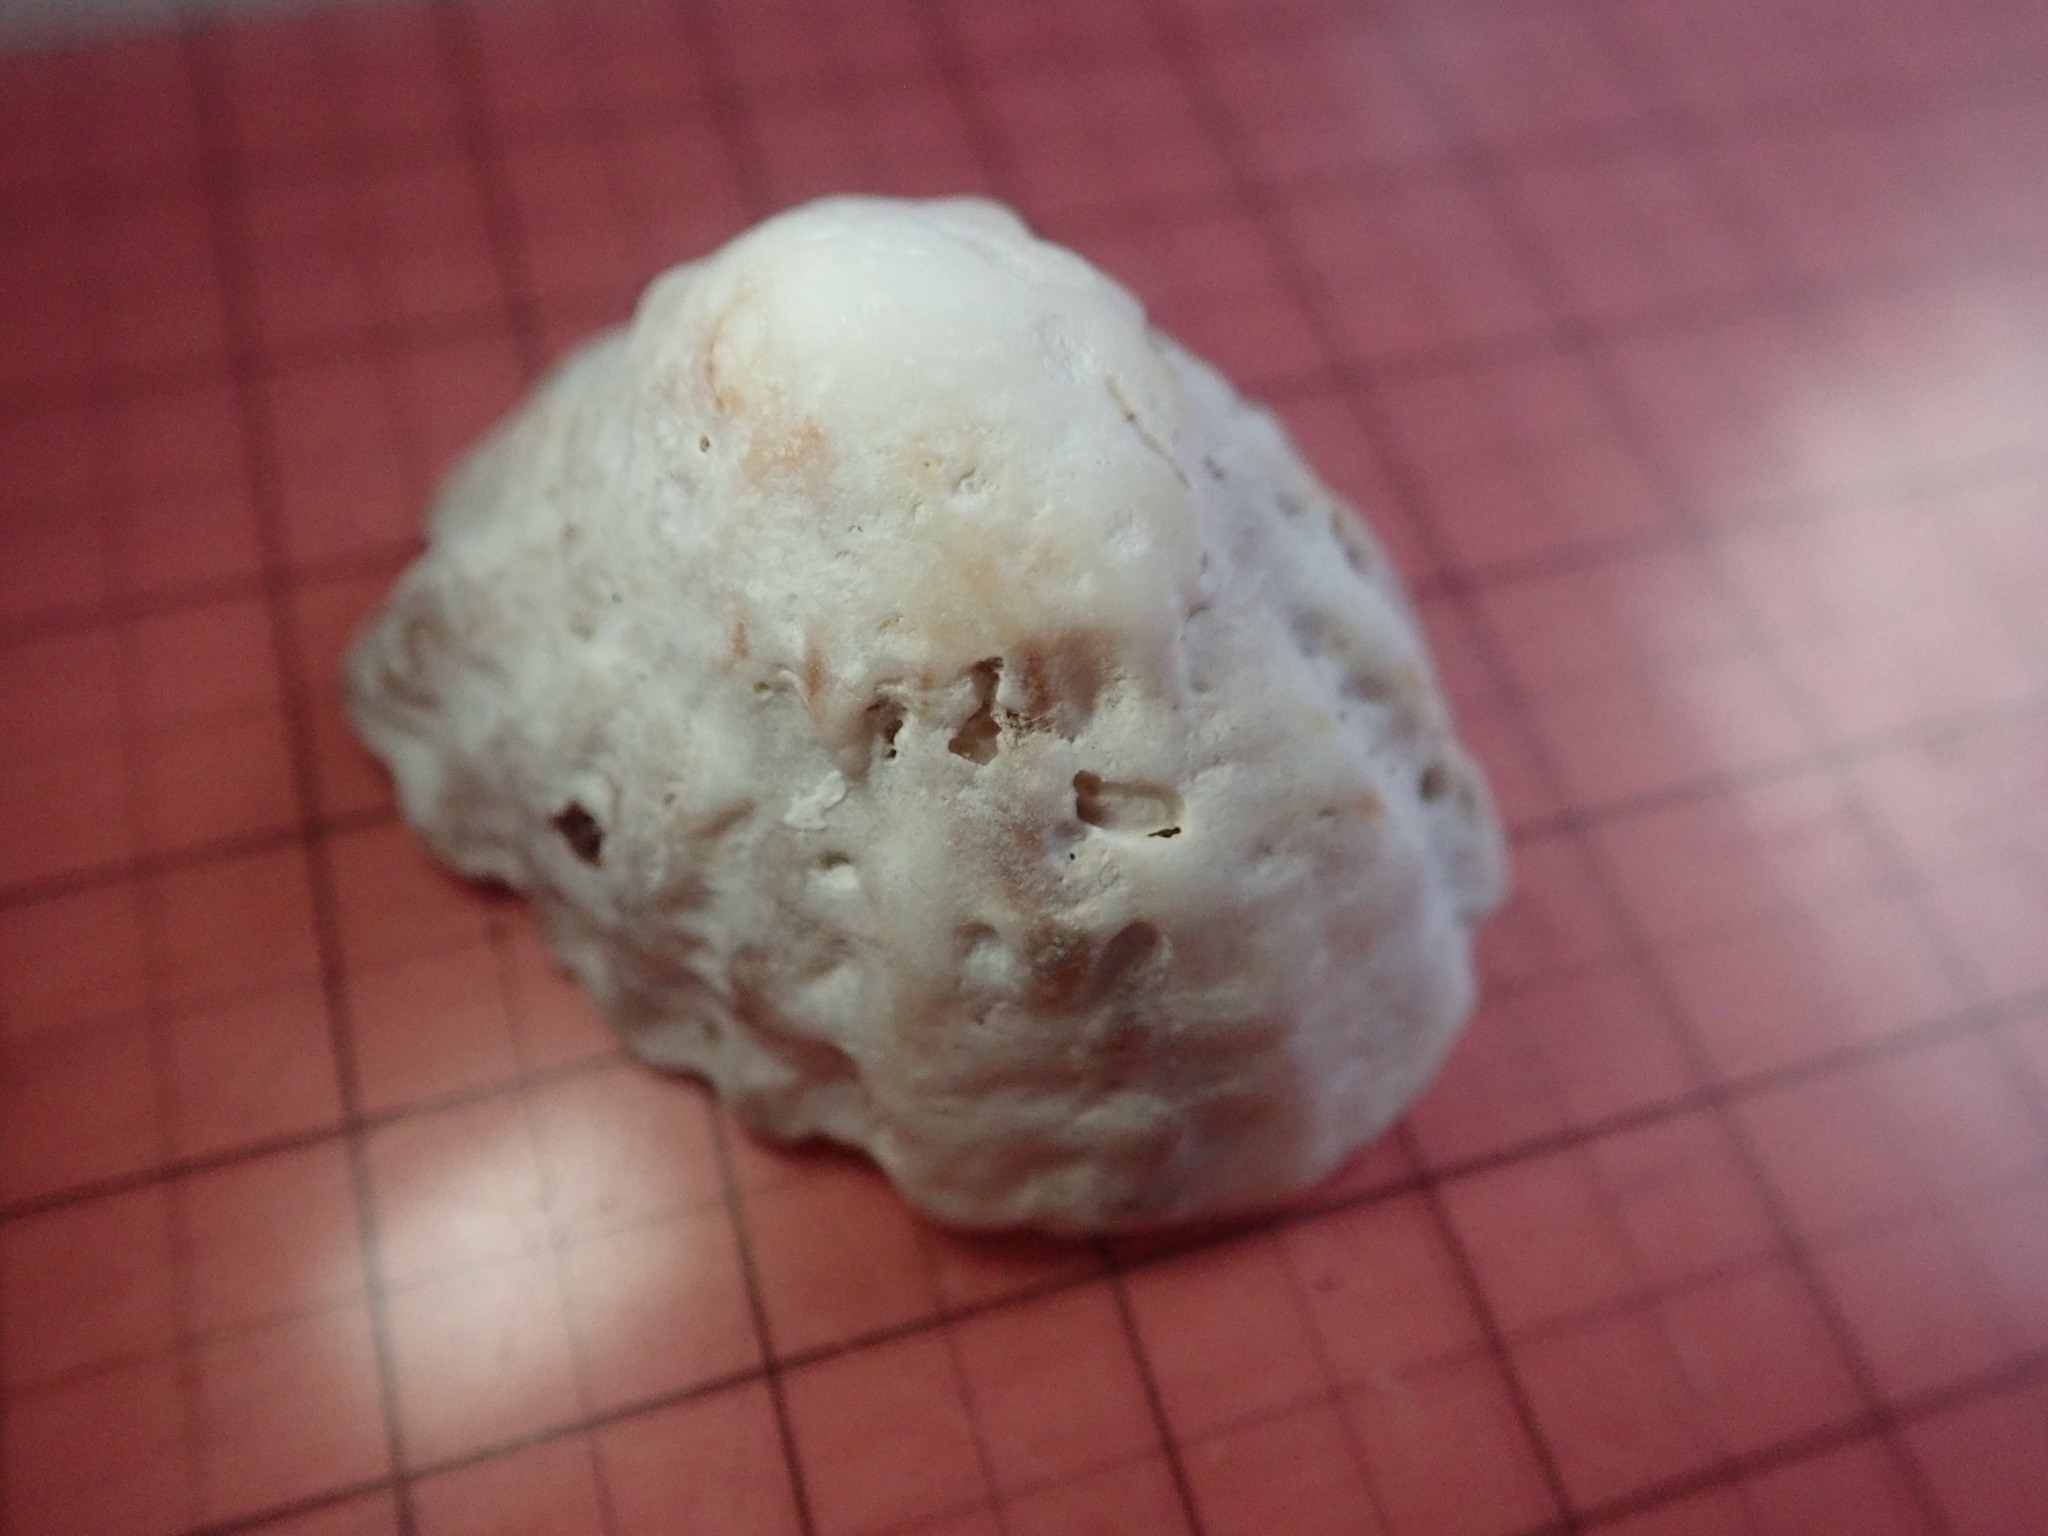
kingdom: Animalia
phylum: Mollusca
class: Gastropoda
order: Littorinimorpha
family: Calyptraeidae
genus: Crucibulum
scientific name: Crucibulum scutellatum
